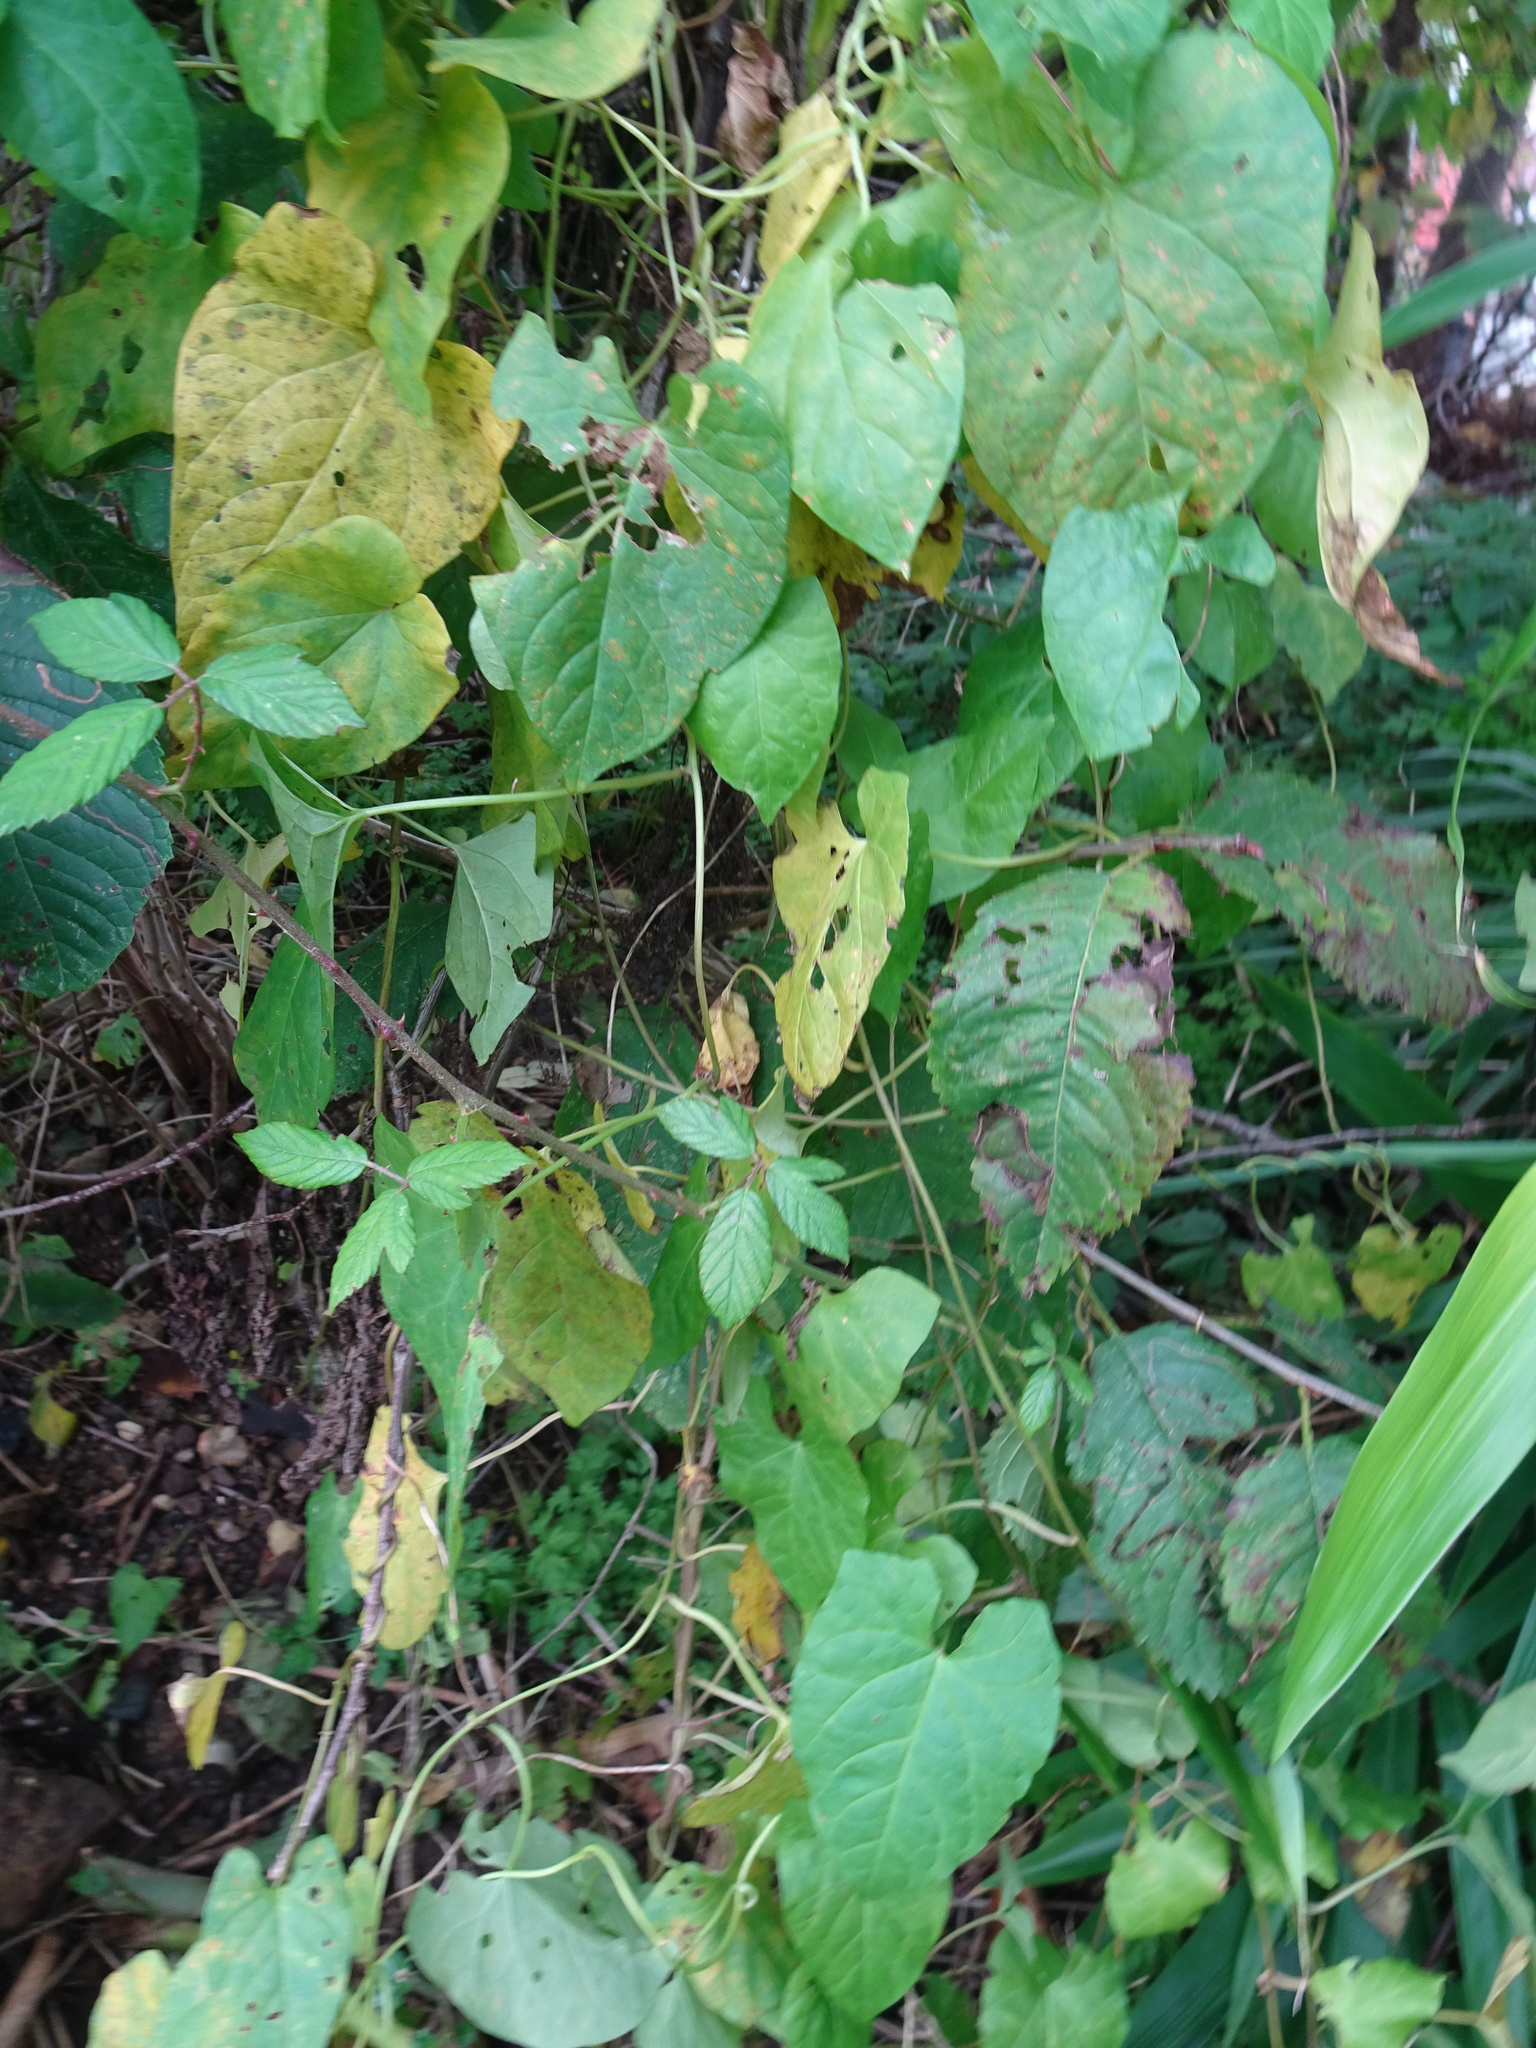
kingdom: Plantae
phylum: Tracheophyta
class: Magnoliopsida
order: Solanales
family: Convolvulaceae
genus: Calystegia
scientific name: Calystegia
